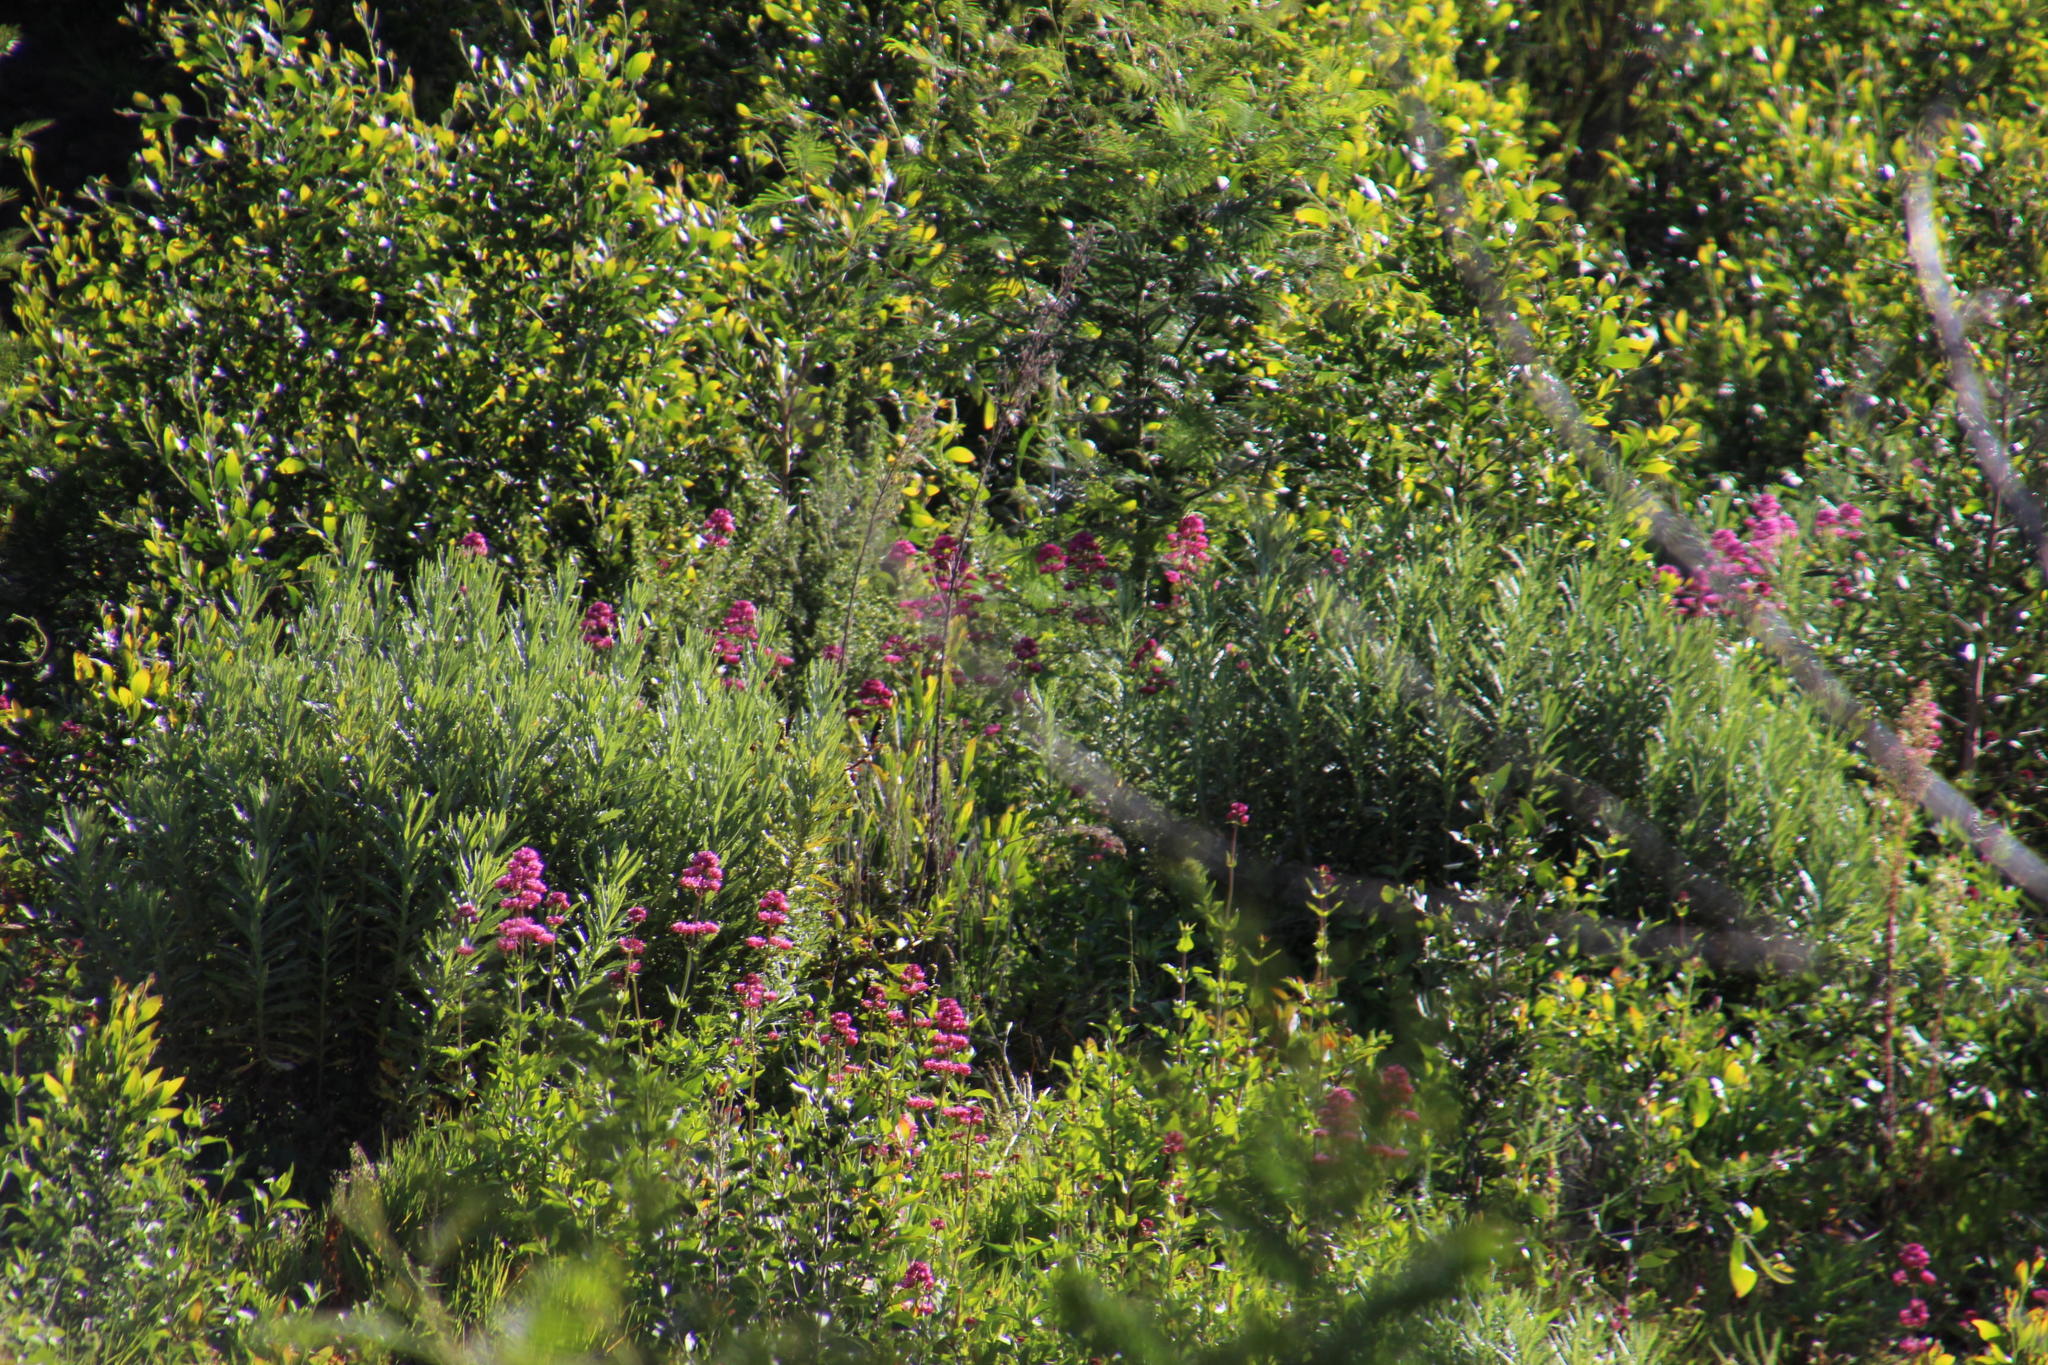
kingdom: Plantae
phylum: Tracheophyta
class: Magnoliopsida
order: Dipsacales
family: Caprifoliaceae
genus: Centranthus
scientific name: Centranthus ruber
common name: Red valerian
